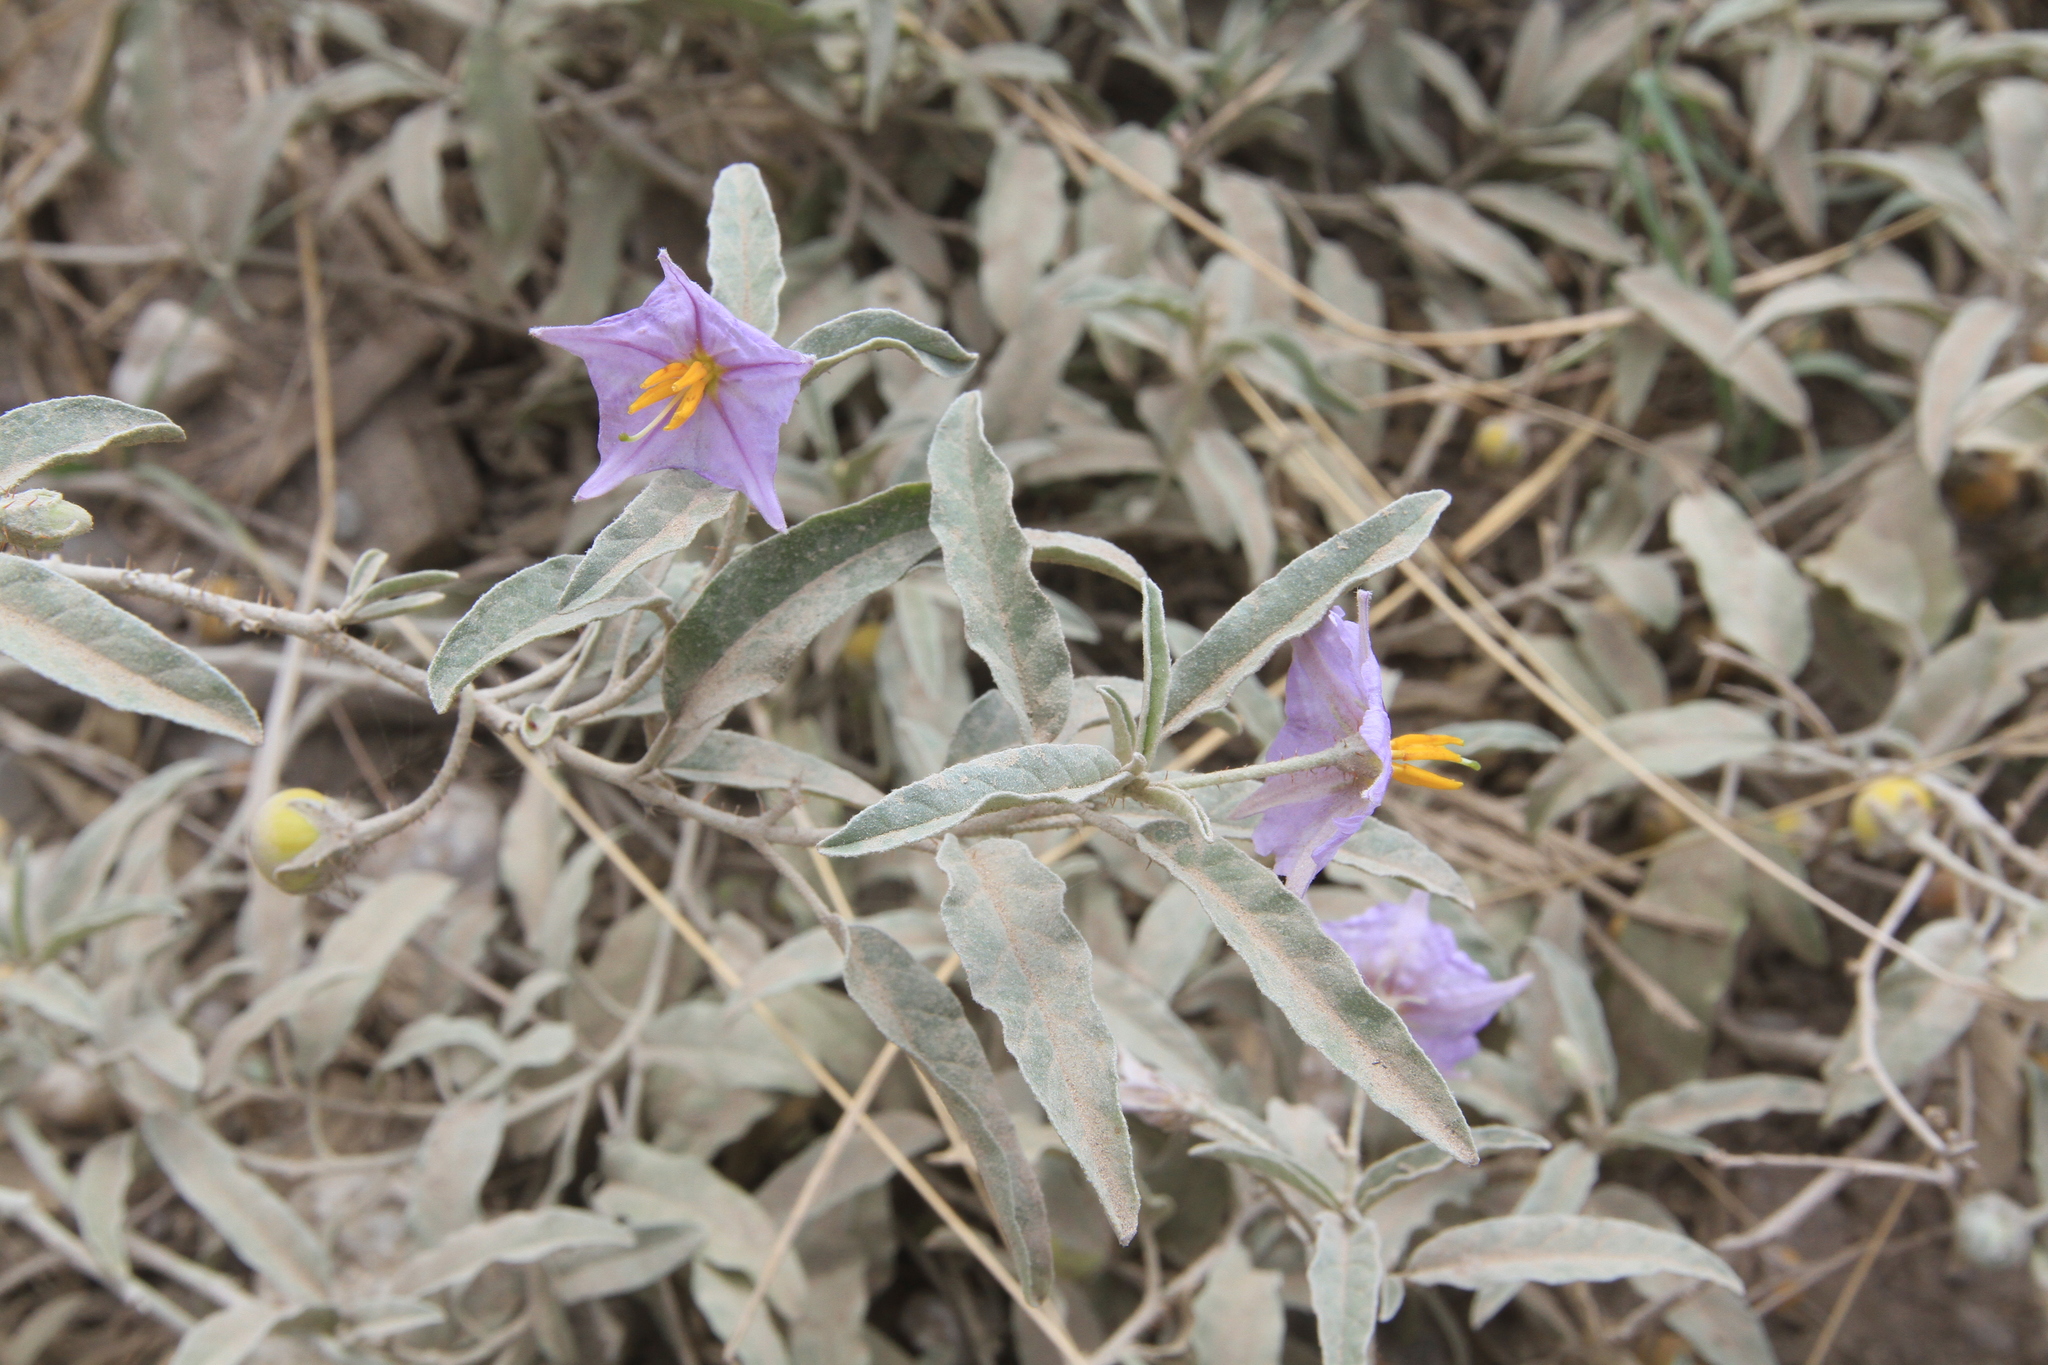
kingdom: Plantae
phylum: Tracheophyta
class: Magnoliopsida
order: Solanales
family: Solanaceae
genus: Solanum
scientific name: Solanum elaeagnifolium
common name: Silverleaf nightshade
